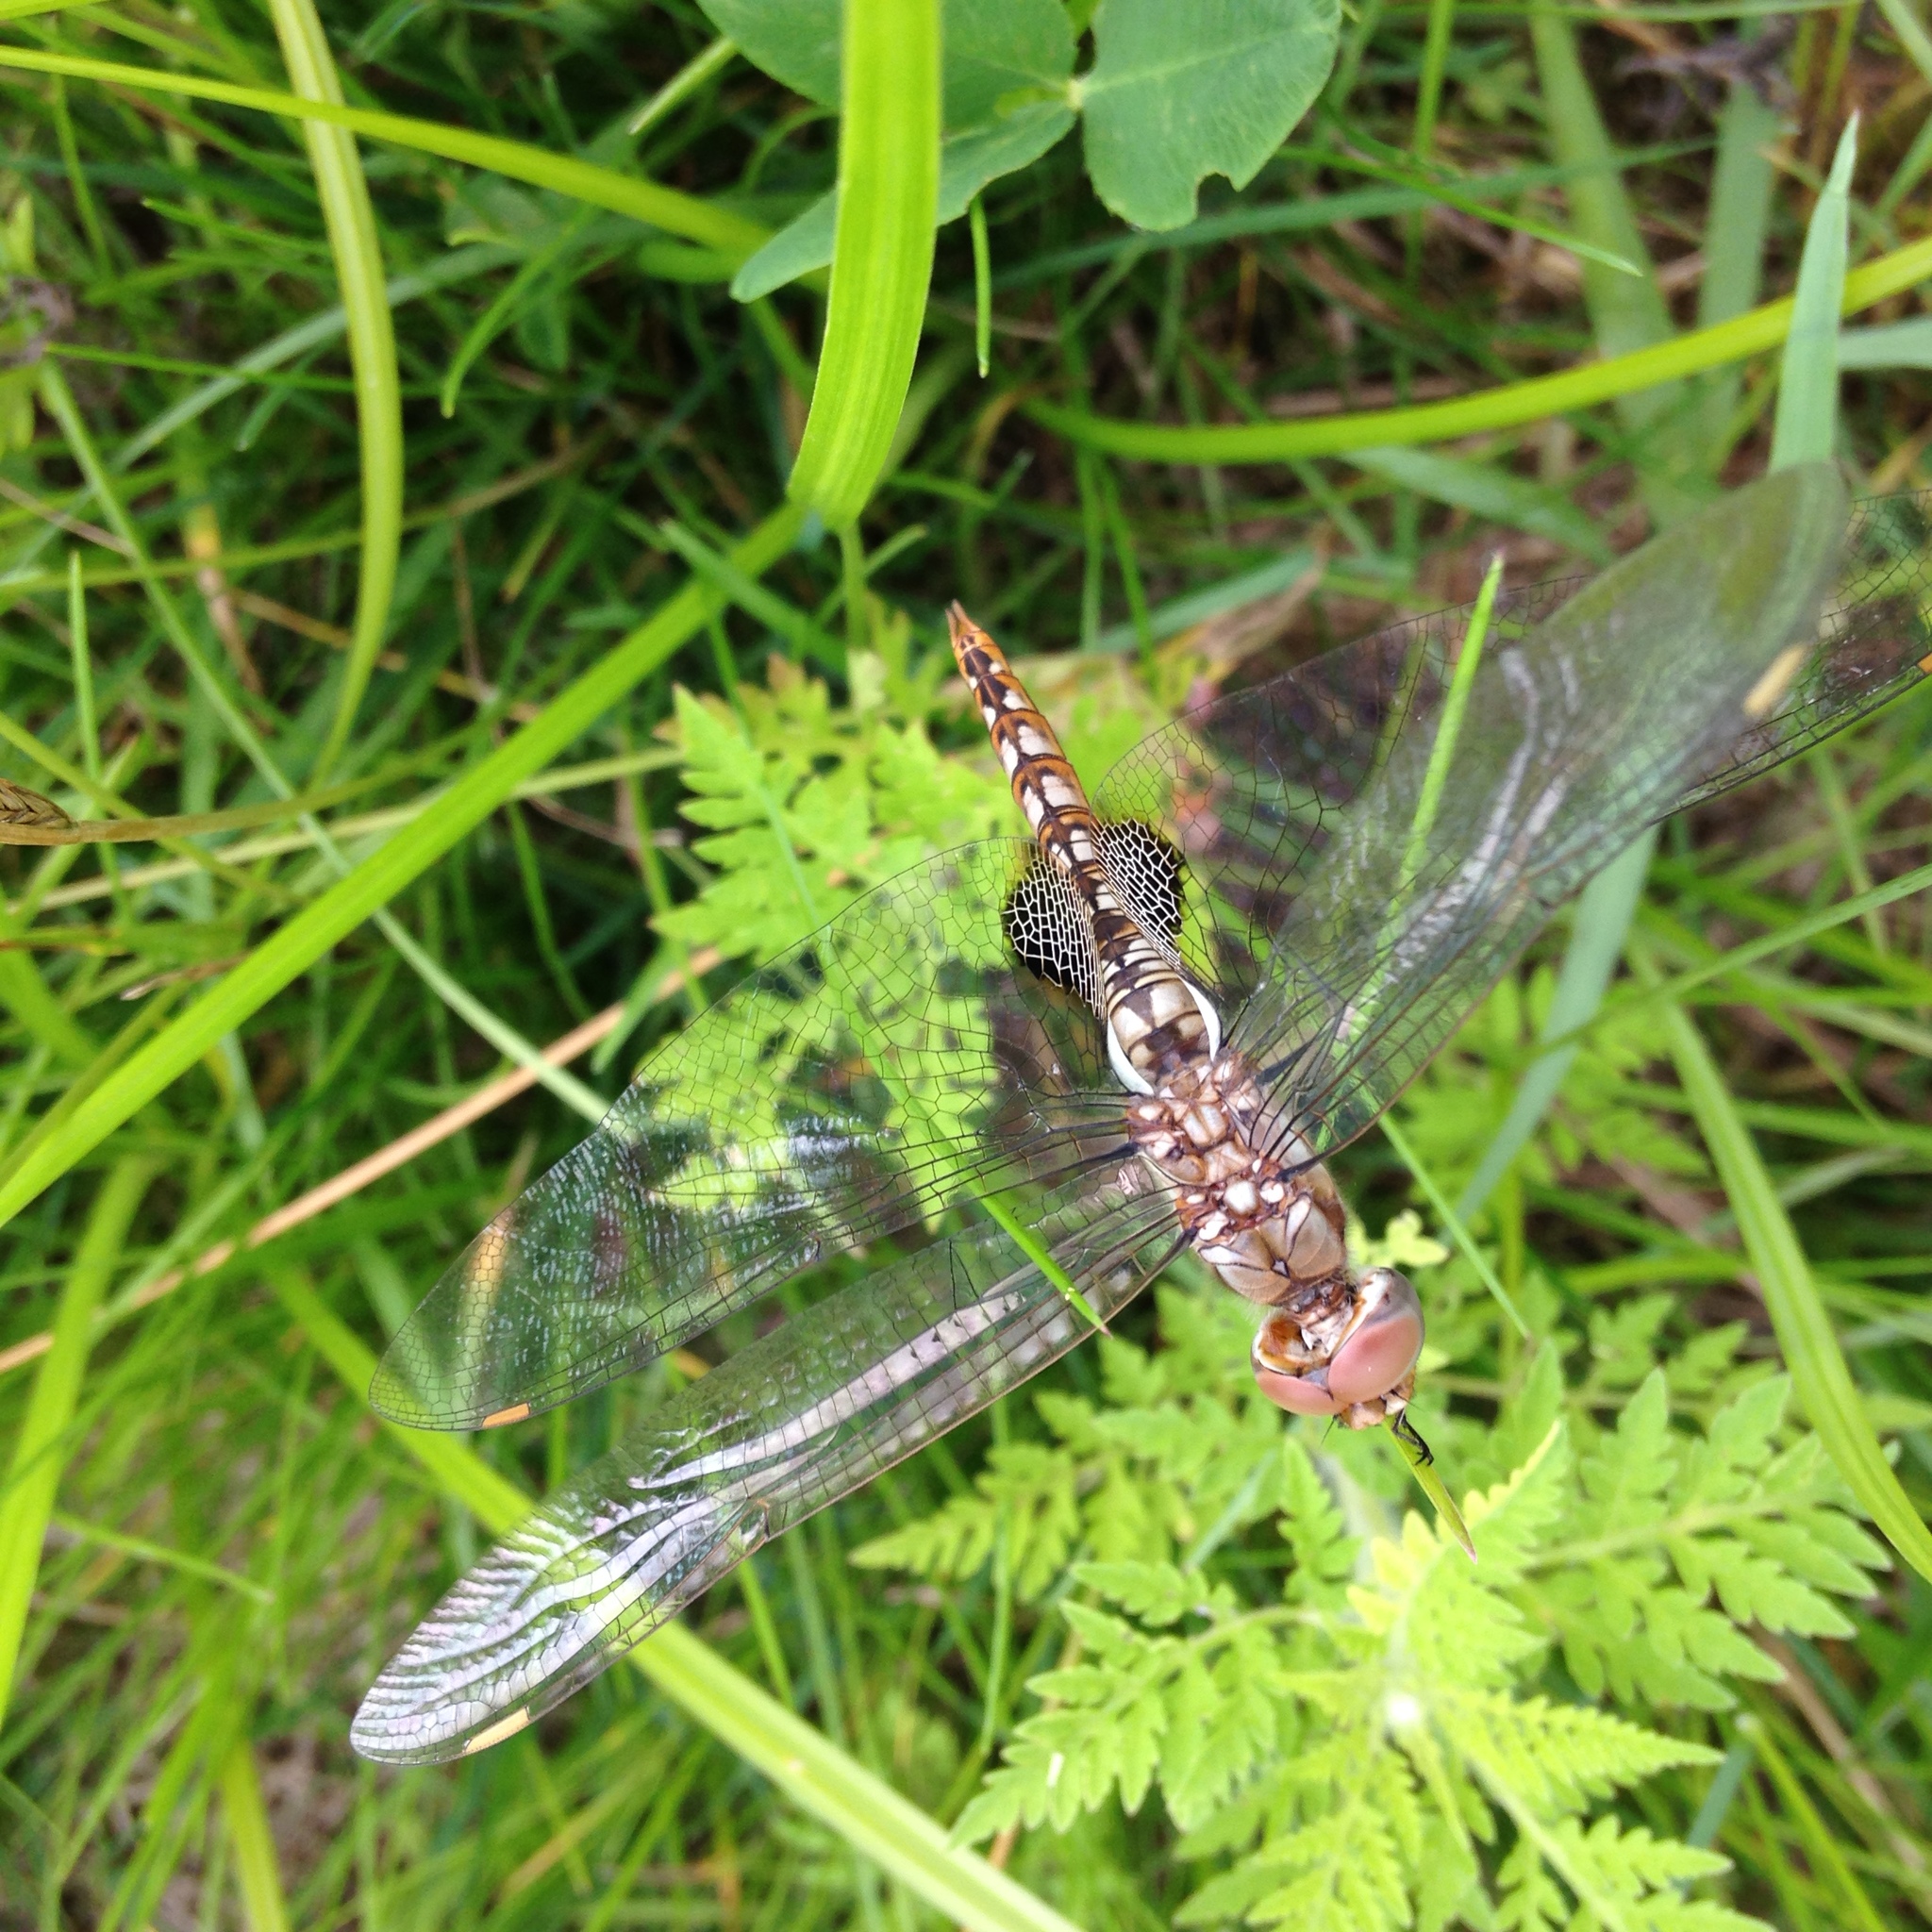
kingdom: Animalia
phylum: Arthropoda
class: Insecta
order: Odonata
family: Libellulidae
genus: Pantala
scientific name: Pantala hymenaea
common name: Spot-winged glider
